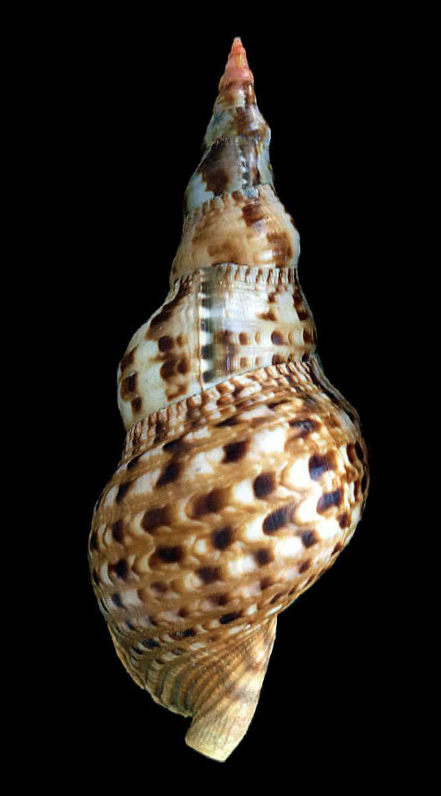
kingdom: Animalia
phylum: Mollusca
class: Gastropoda
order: Littorinimorpha
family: Charoniidae
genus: Charonia
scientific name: Charonia variegata
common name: Atlantic triton
